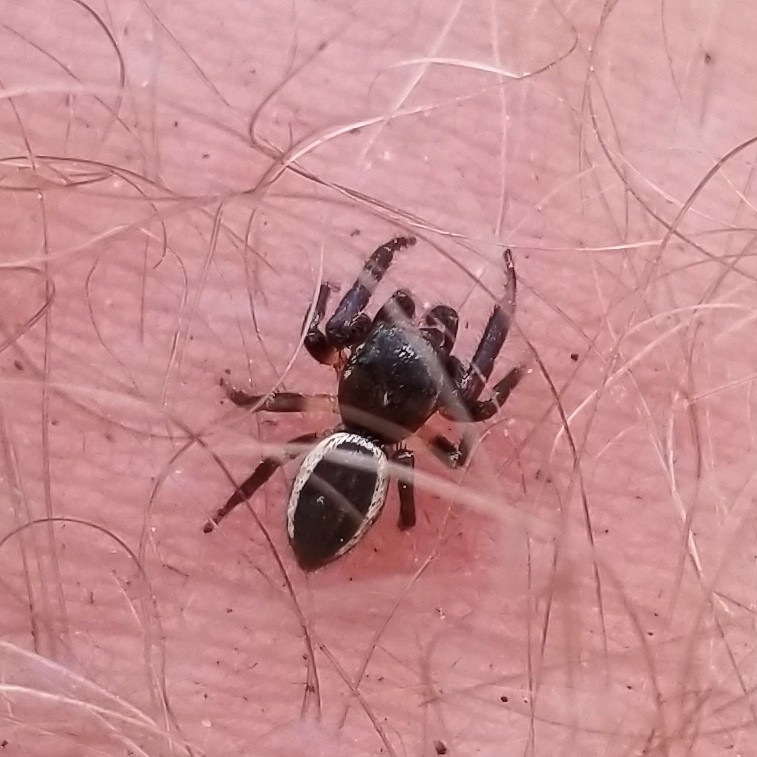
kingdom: Animalia
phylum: Arthropoda
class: Arachnida
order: Araneae
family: Salticidae
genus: Eris
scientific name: Eris militaris
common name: Bronze jumper
